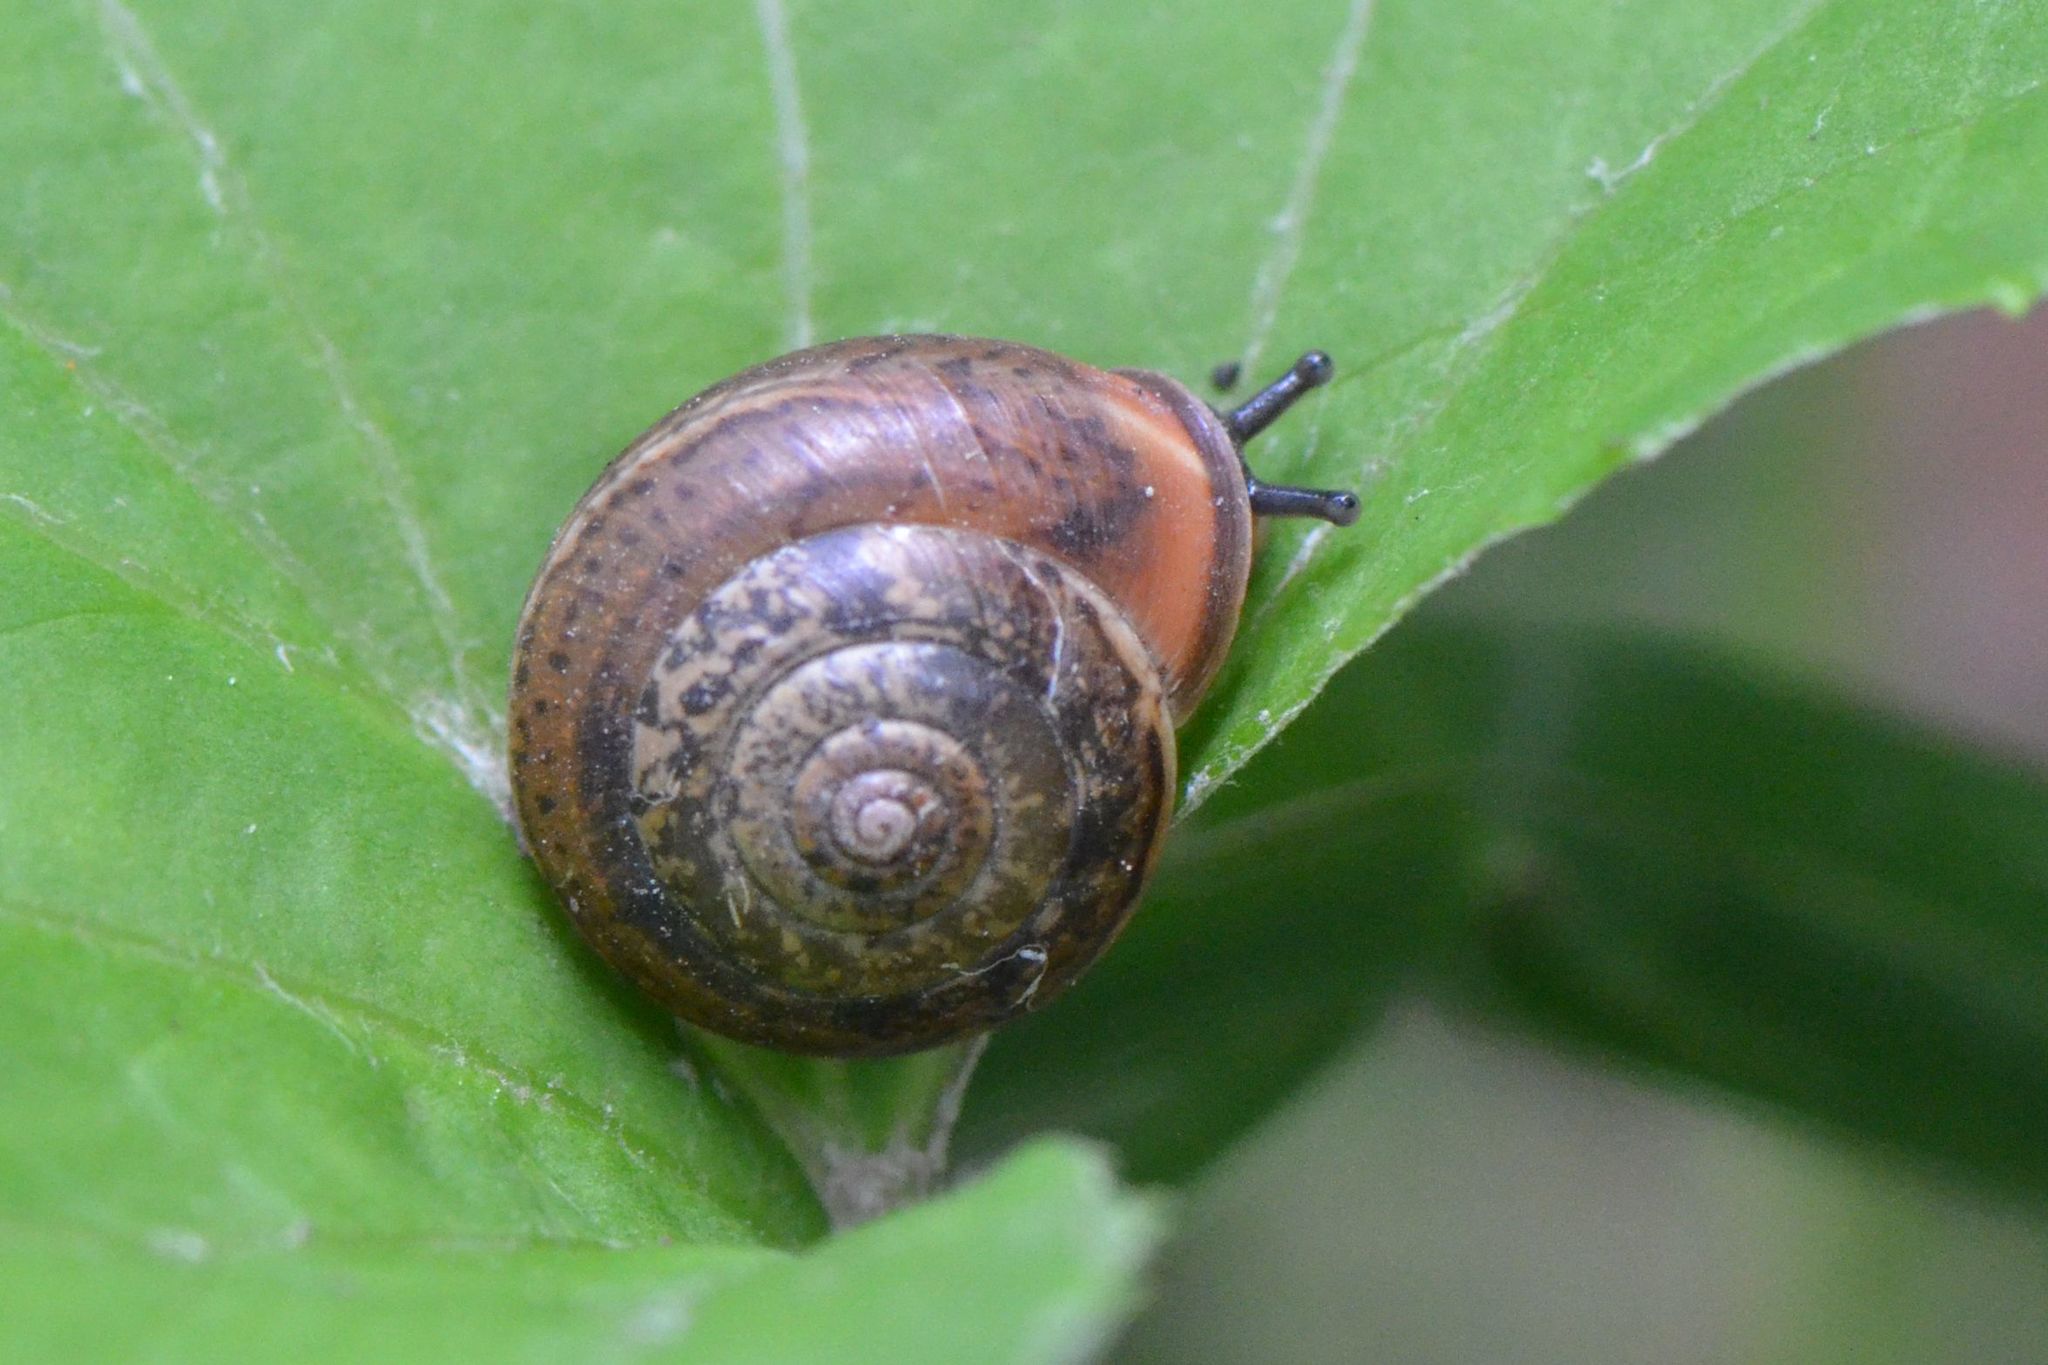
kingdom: Animalia
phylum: Mollusca
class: Gastropoda
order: Stylommatophora
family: Hygromiidae
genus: Monachoides
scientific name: Monachoides incarnatus
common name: Incarnate snail
